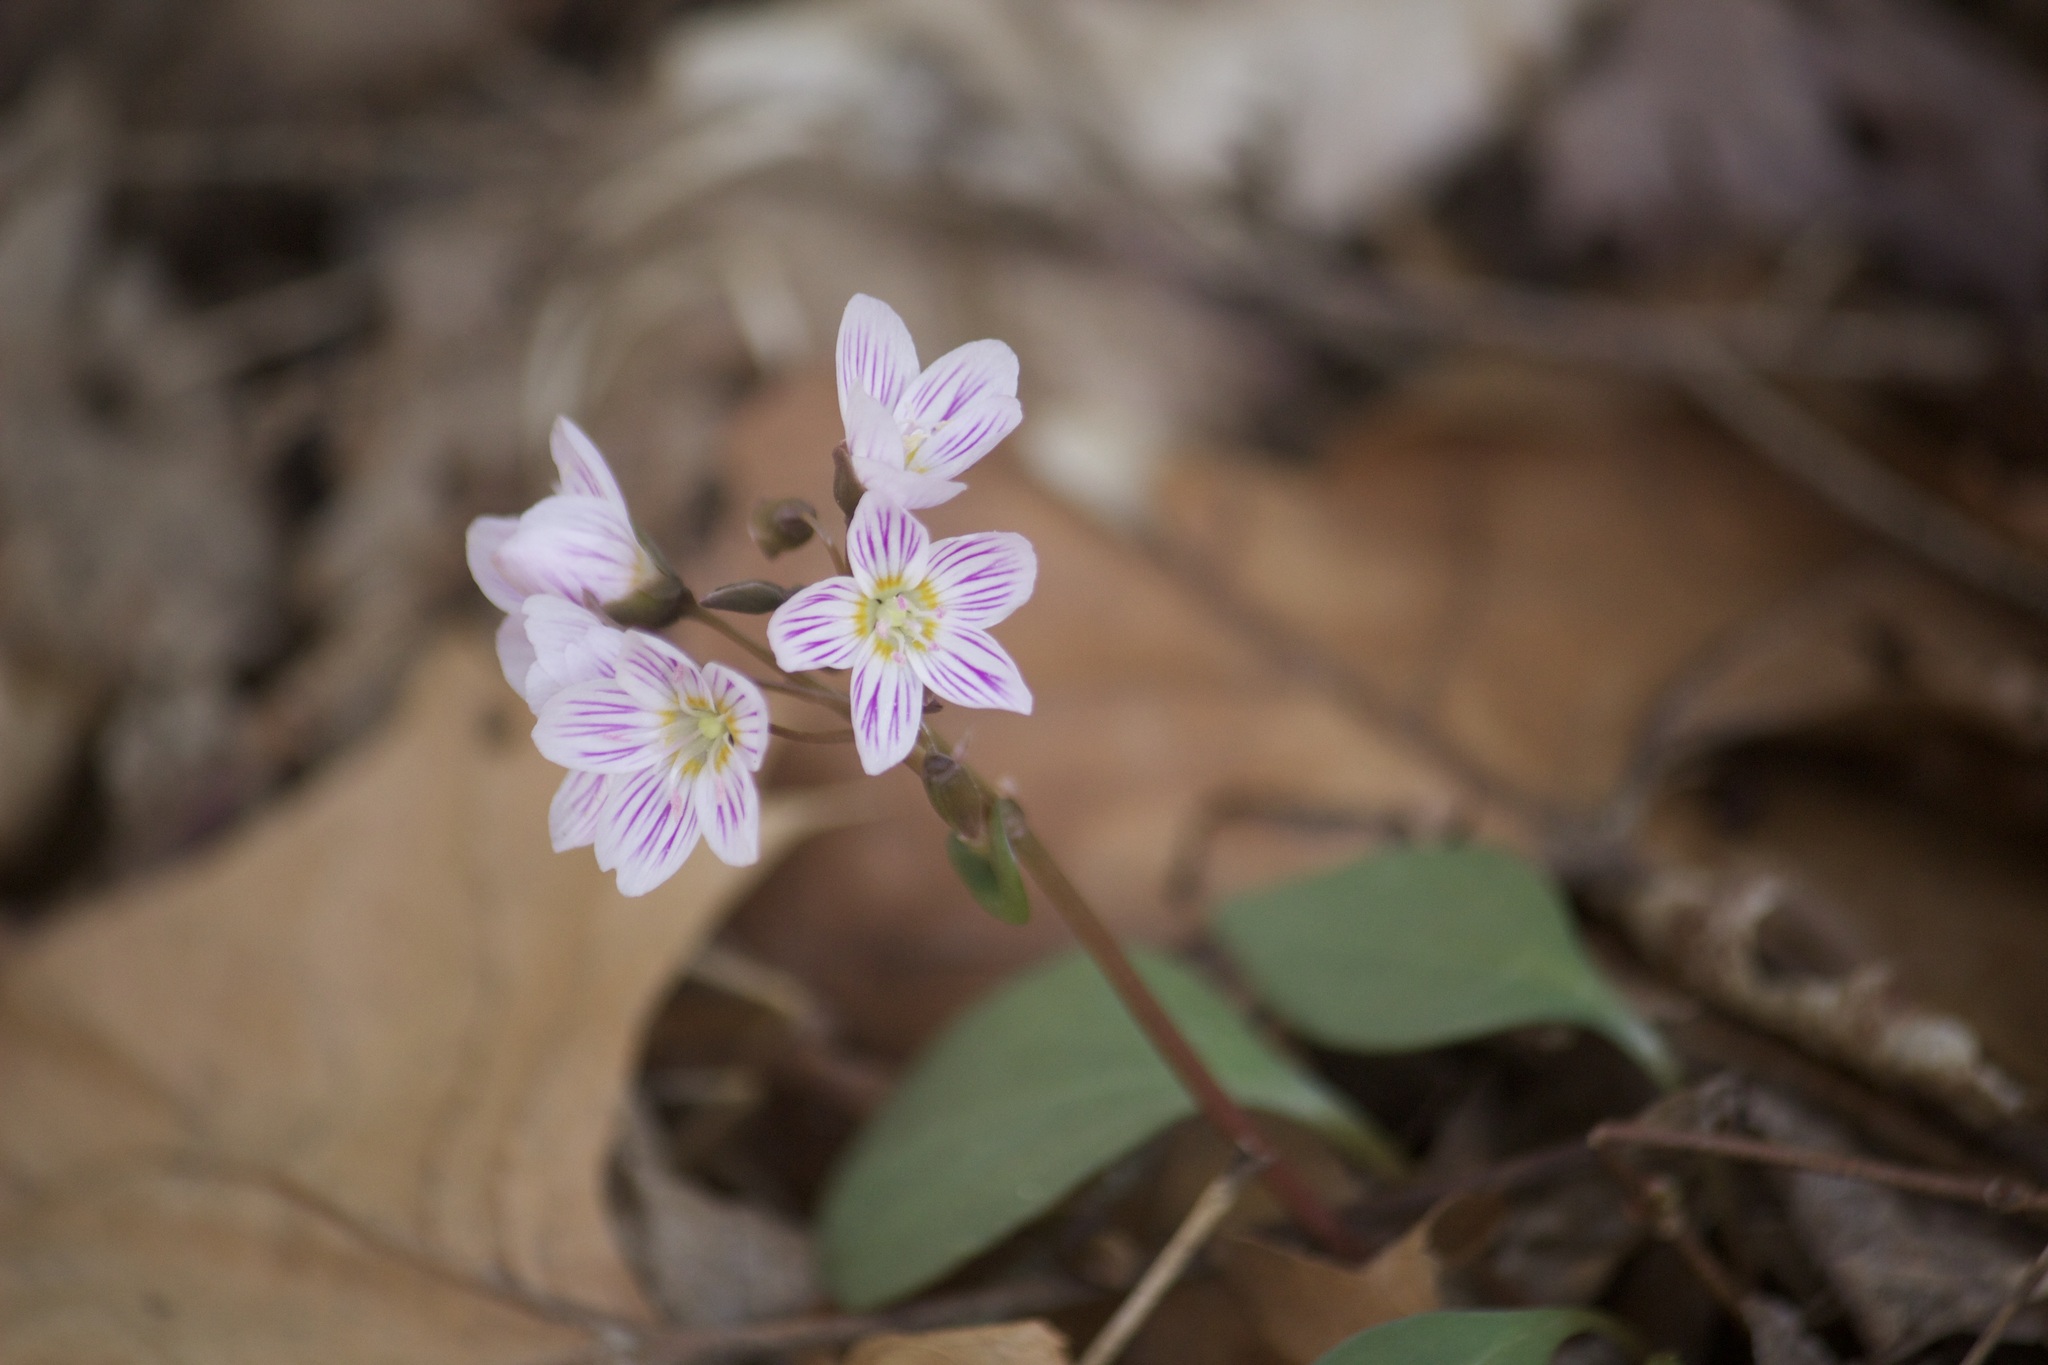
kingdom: Plantae
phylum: Tracheophyta
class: Magnoliopsida
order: Caryophyllales
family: Montiaceae
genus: Claytonia
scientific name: Claytonia caroliniana
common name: Carolina spring beauty
